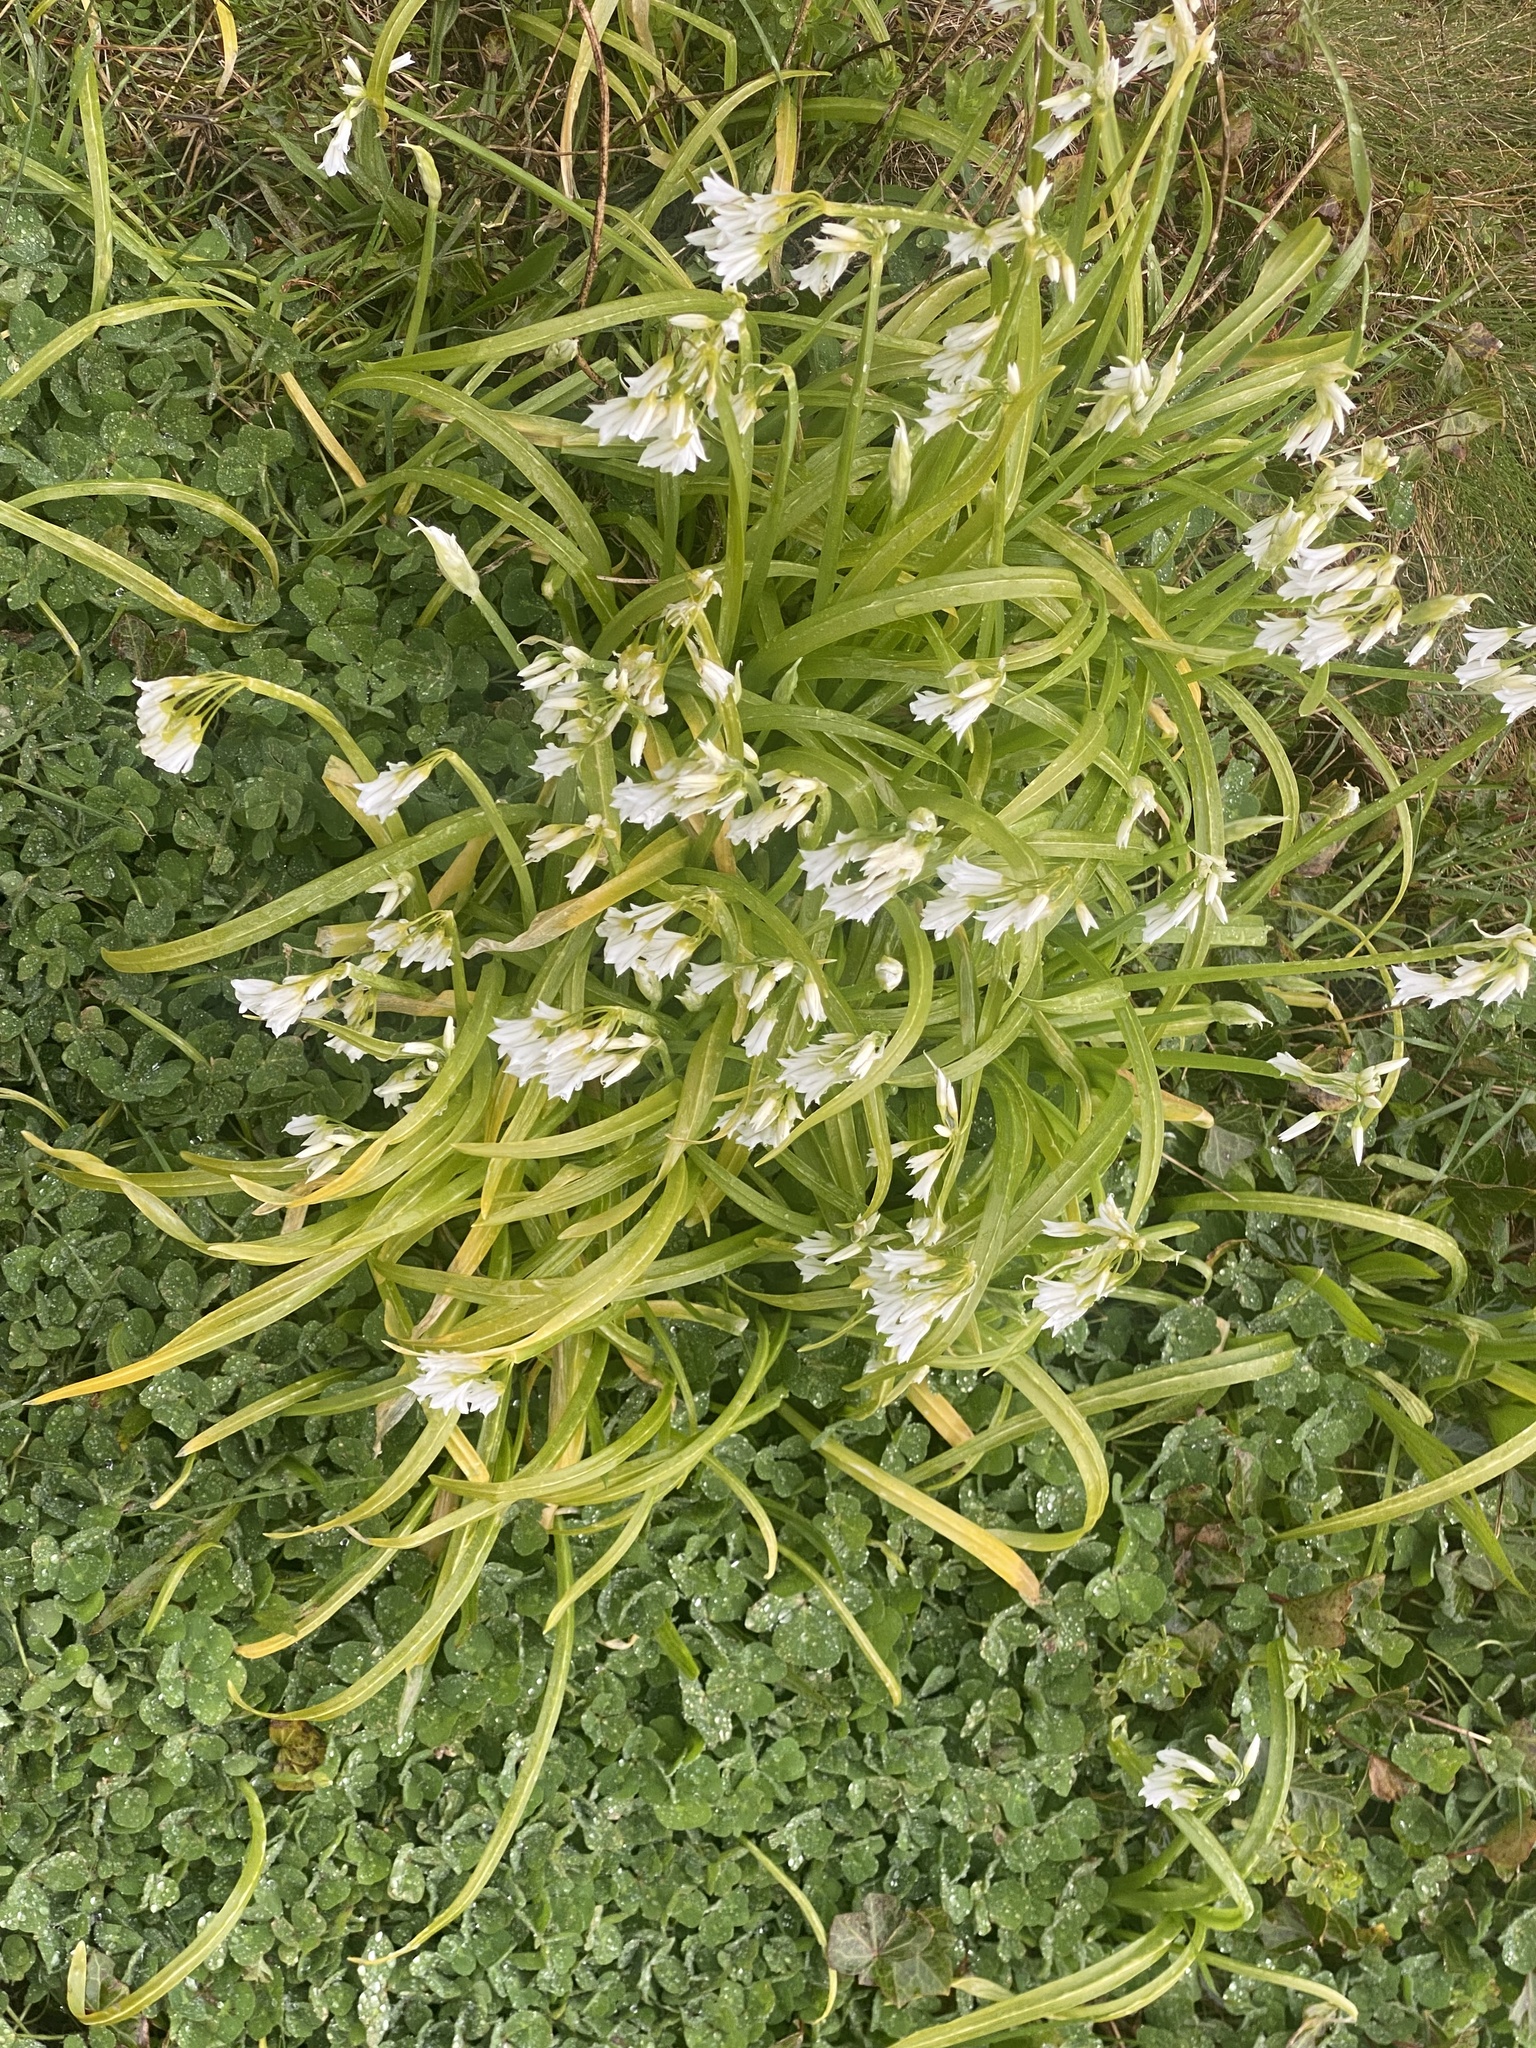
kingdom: Plantae
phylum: Tracheophyta
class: Liliopsida
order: Asparagales
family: Amaryllidaceae
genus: Allium
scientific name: Allium triquetrum
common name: Three-cornered garlic
